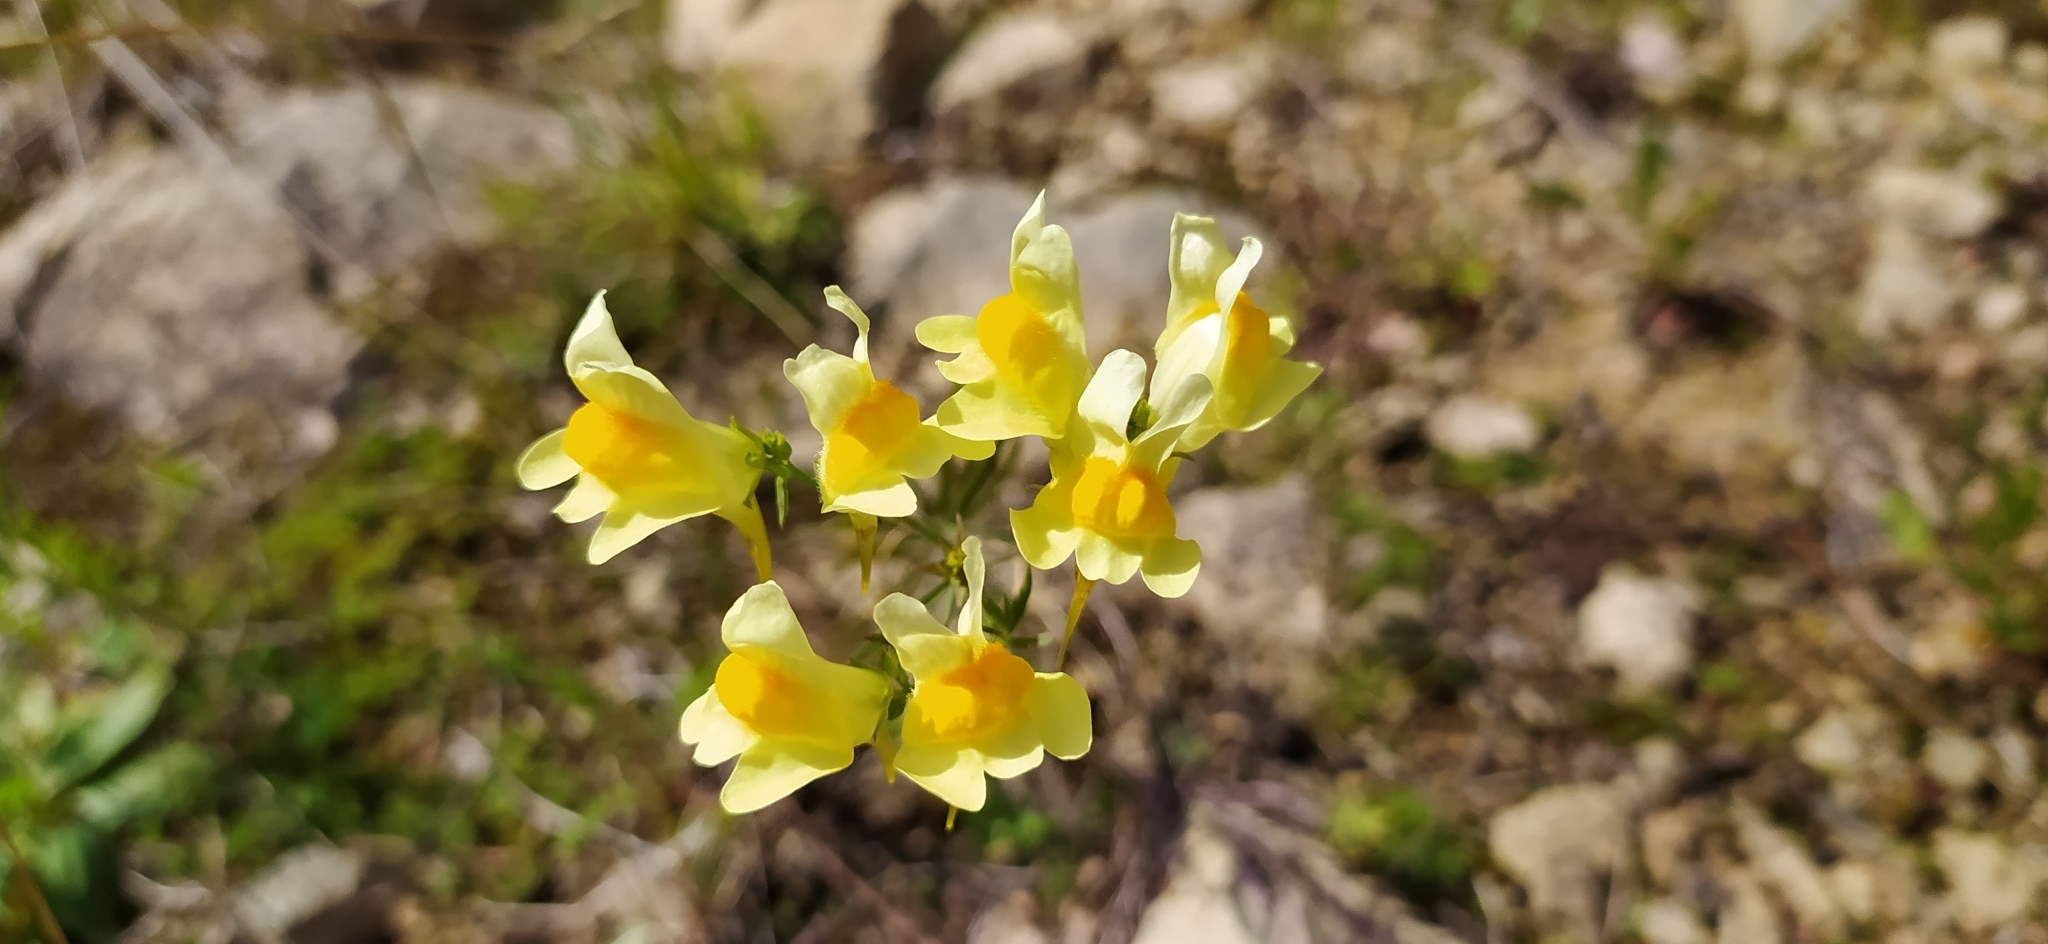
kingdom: Plantae
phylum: Tracheophyta
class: Magnoliopsida
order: Lamiales
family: Plantaginaceae
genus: Linaria
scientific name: Linaria vulgaris
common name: Butter and eggs
